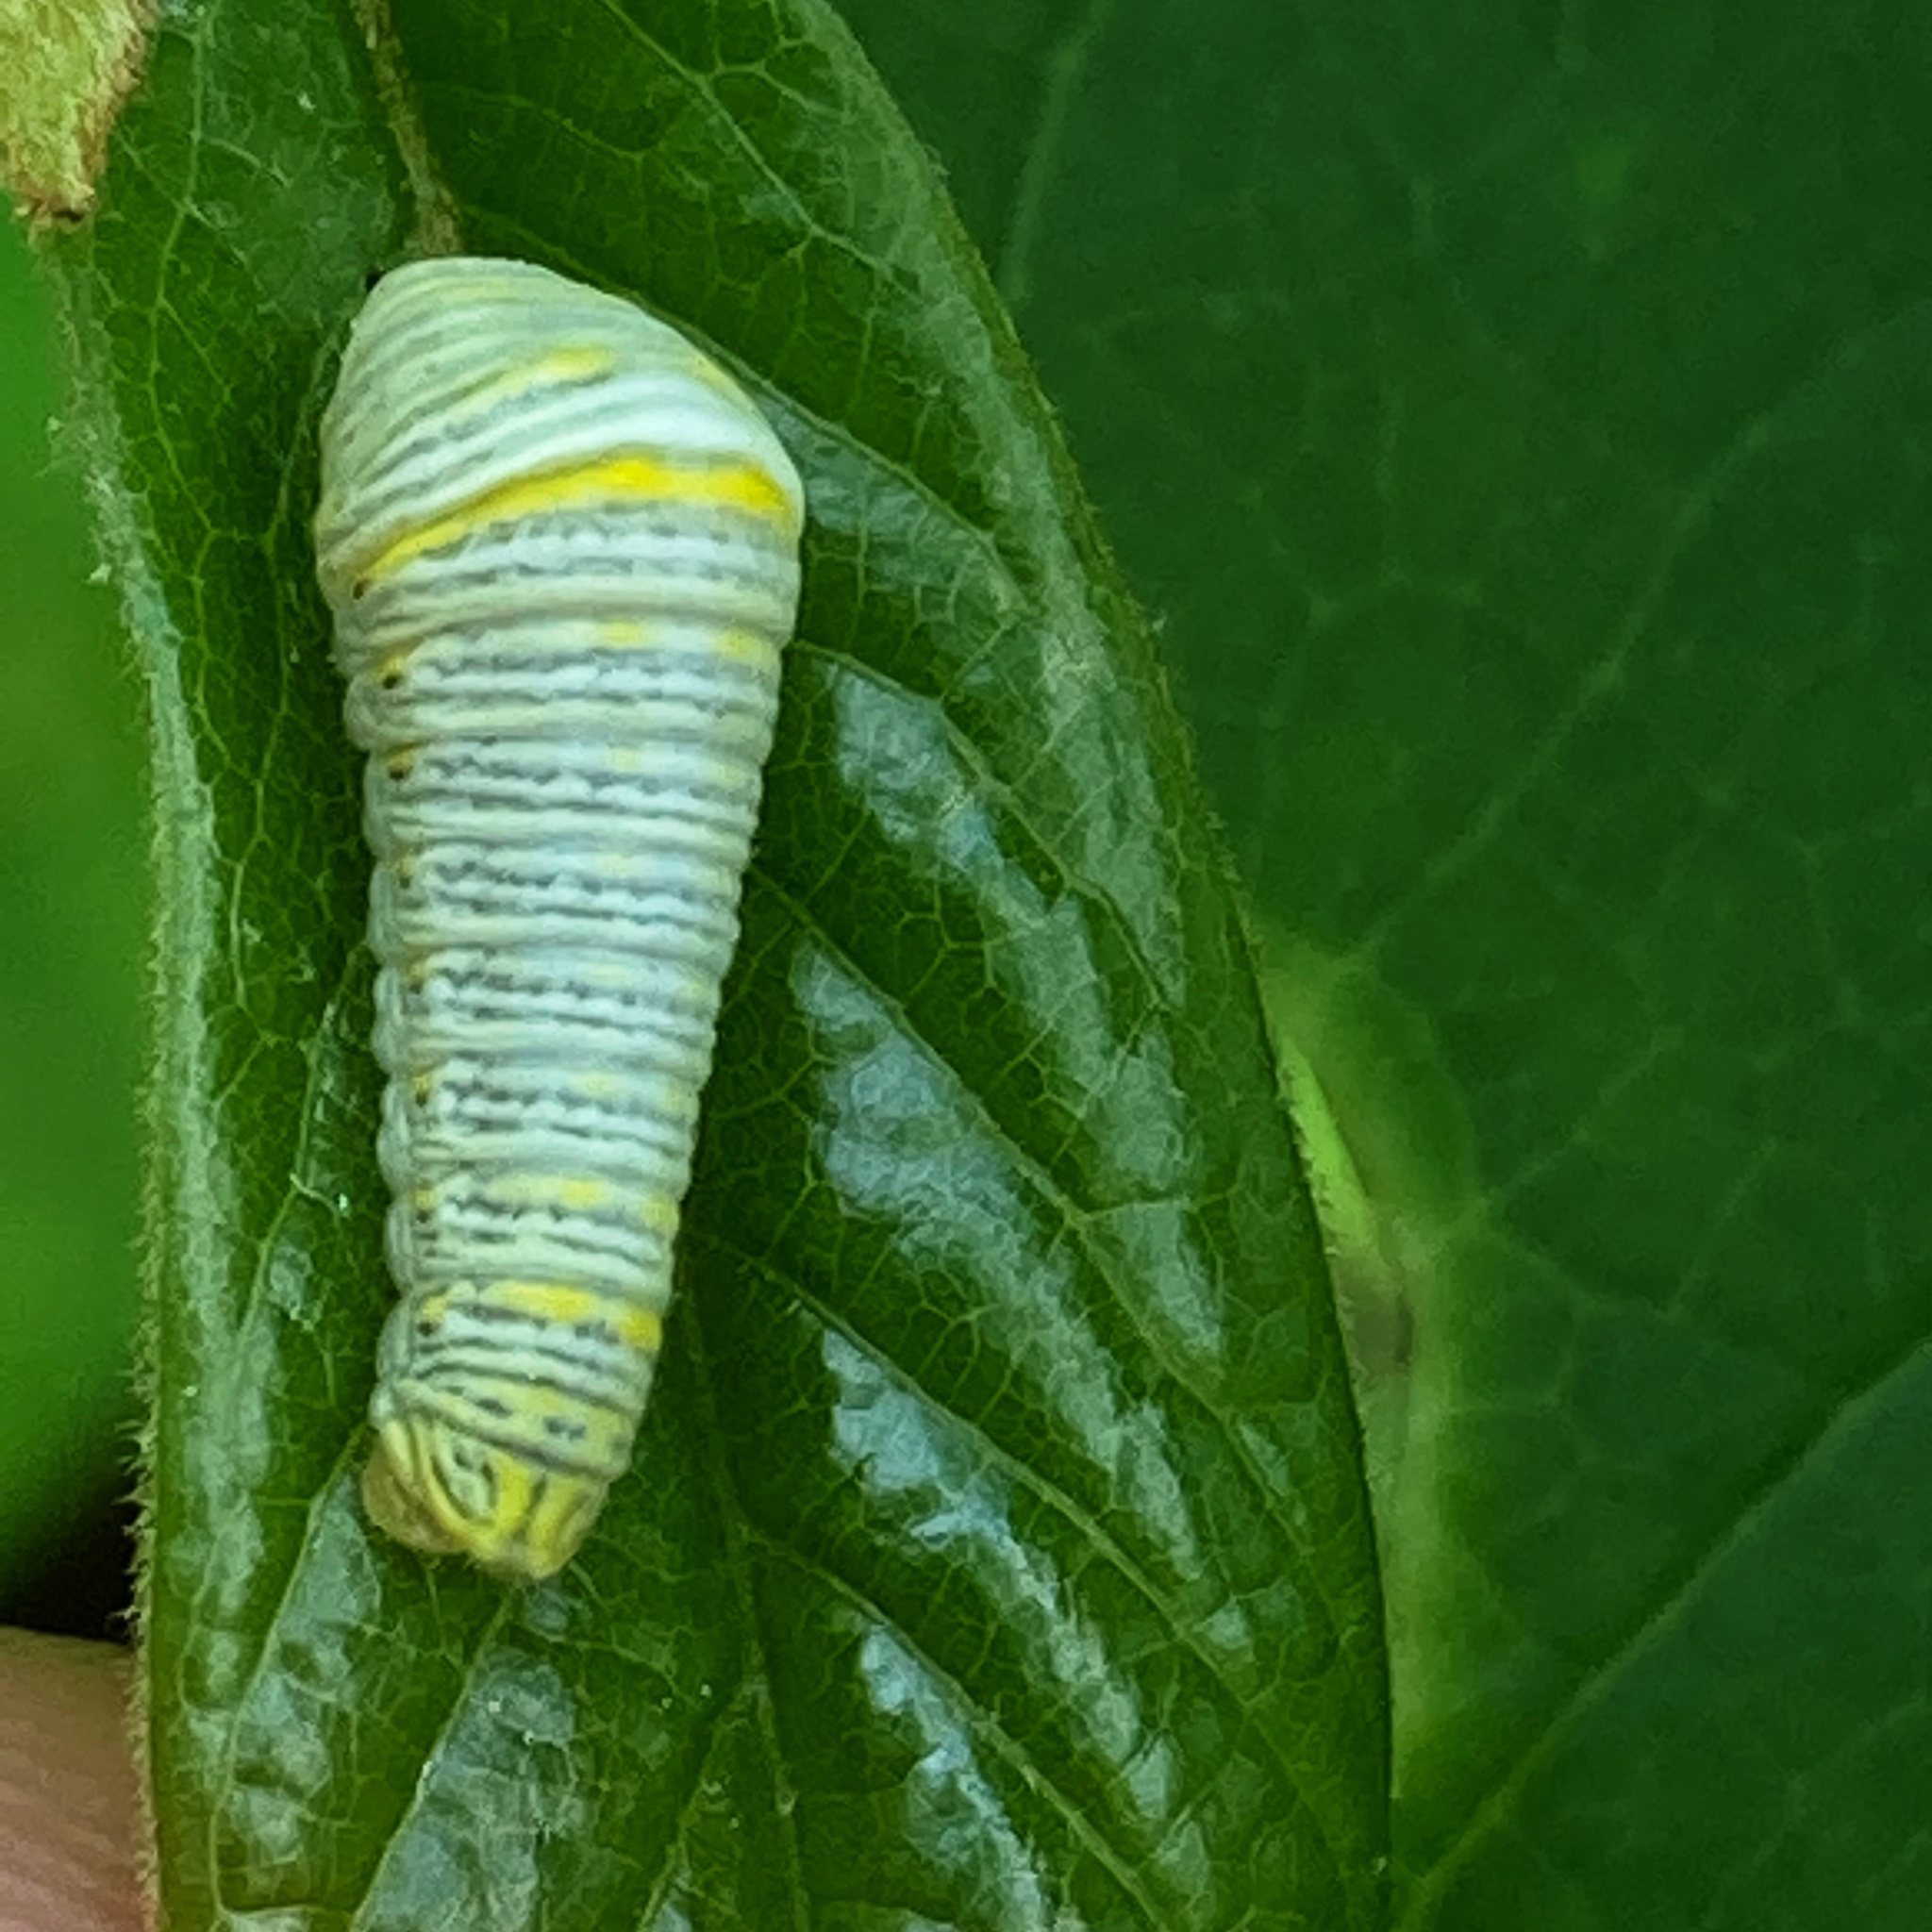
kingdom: Animalia
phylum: Arthropoda
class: Insecta
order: Lepidoptera
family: Papilionidae
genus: Protographium
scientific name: Protographium marcellus
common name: Zebra swallowtail
